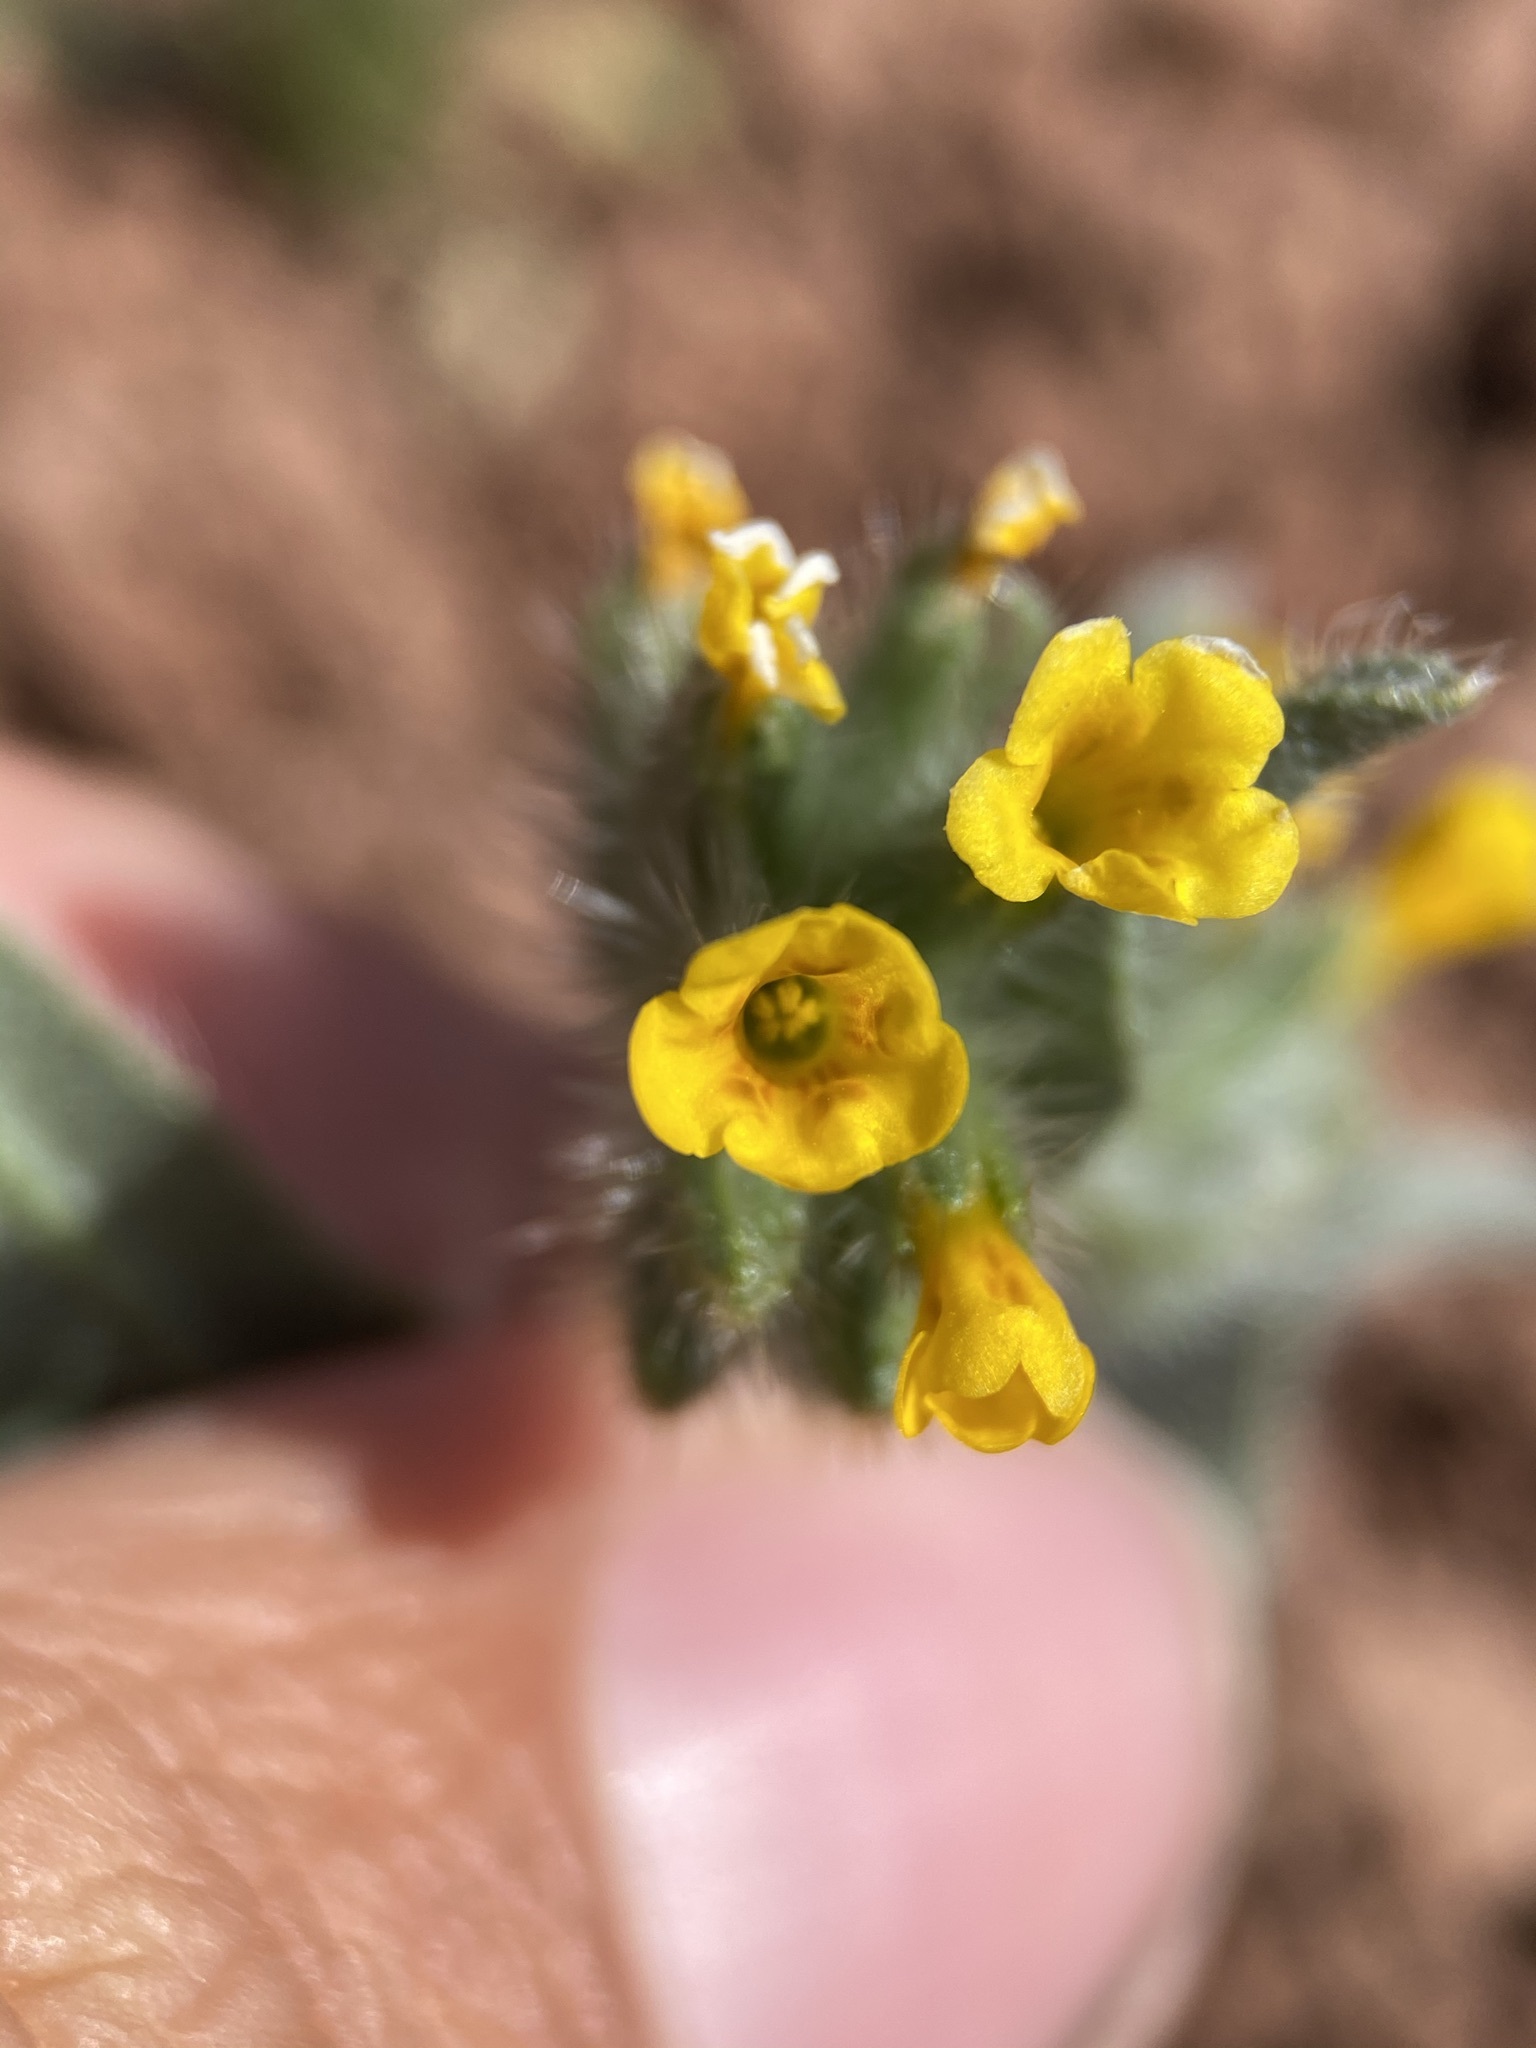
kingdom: Plantae
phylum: Tracheophyta
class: Magnoliopsida
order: Boraginales
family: Boraginaceae
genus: Amsinckia
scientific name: Amsinckia tessellata
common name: Tessellate fiddleneck
